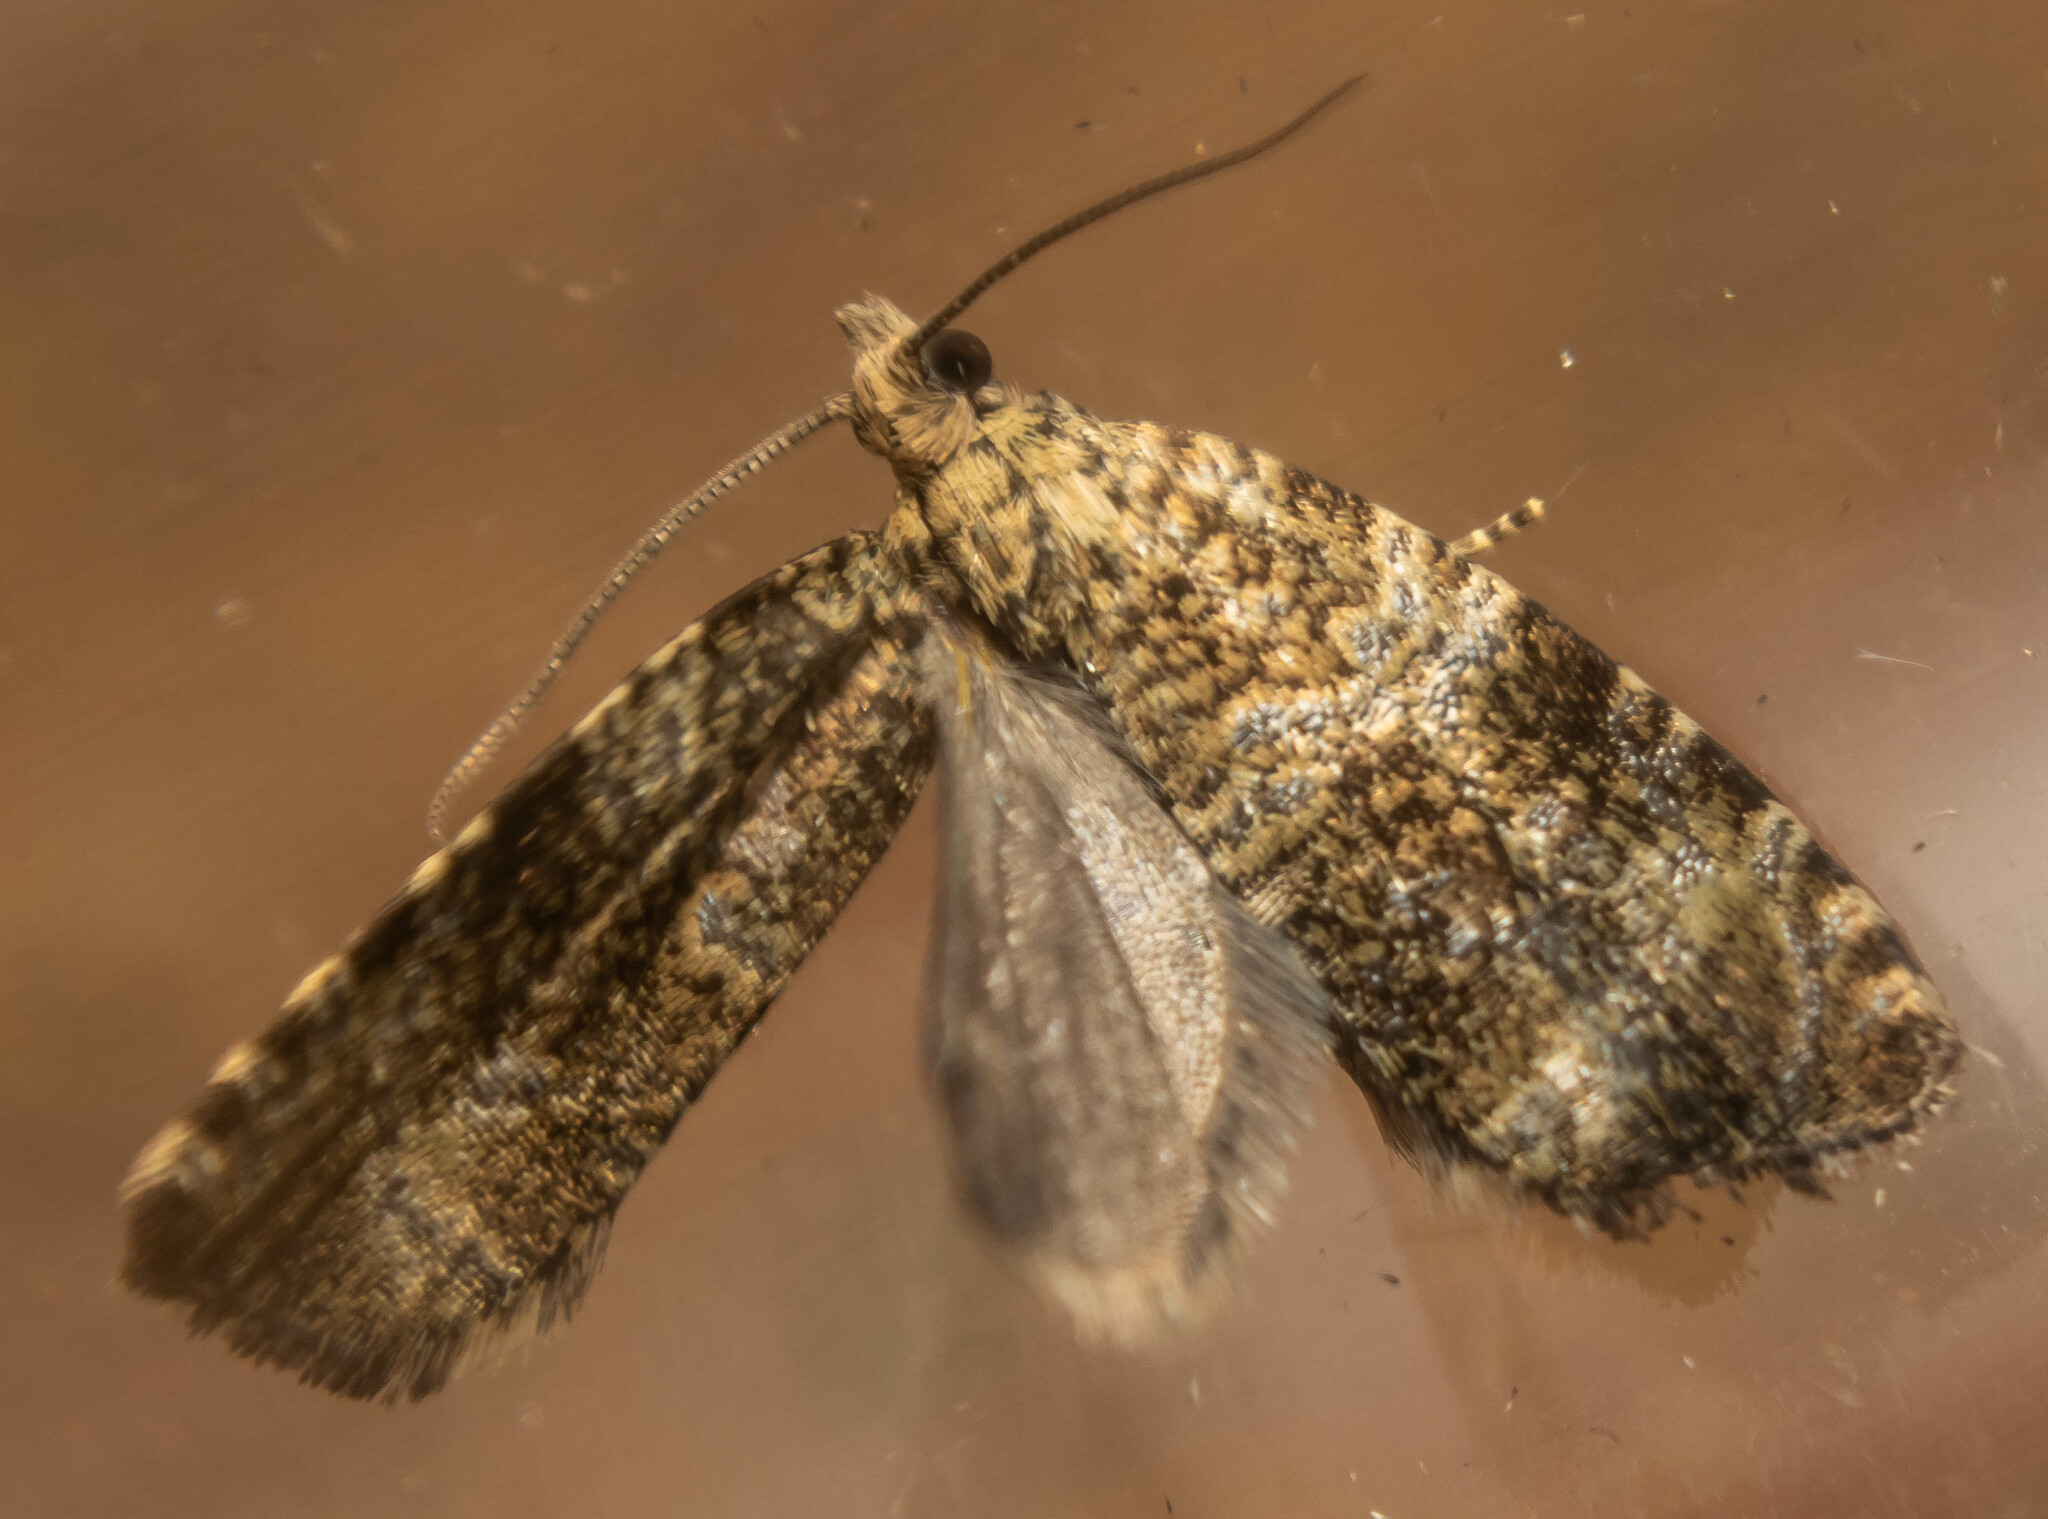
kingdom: Animalia
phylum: Arthropoda
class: Insecta
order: Lepidoptera
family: Tortricidae
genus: Syricoris
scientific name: Syricoris lacunana
